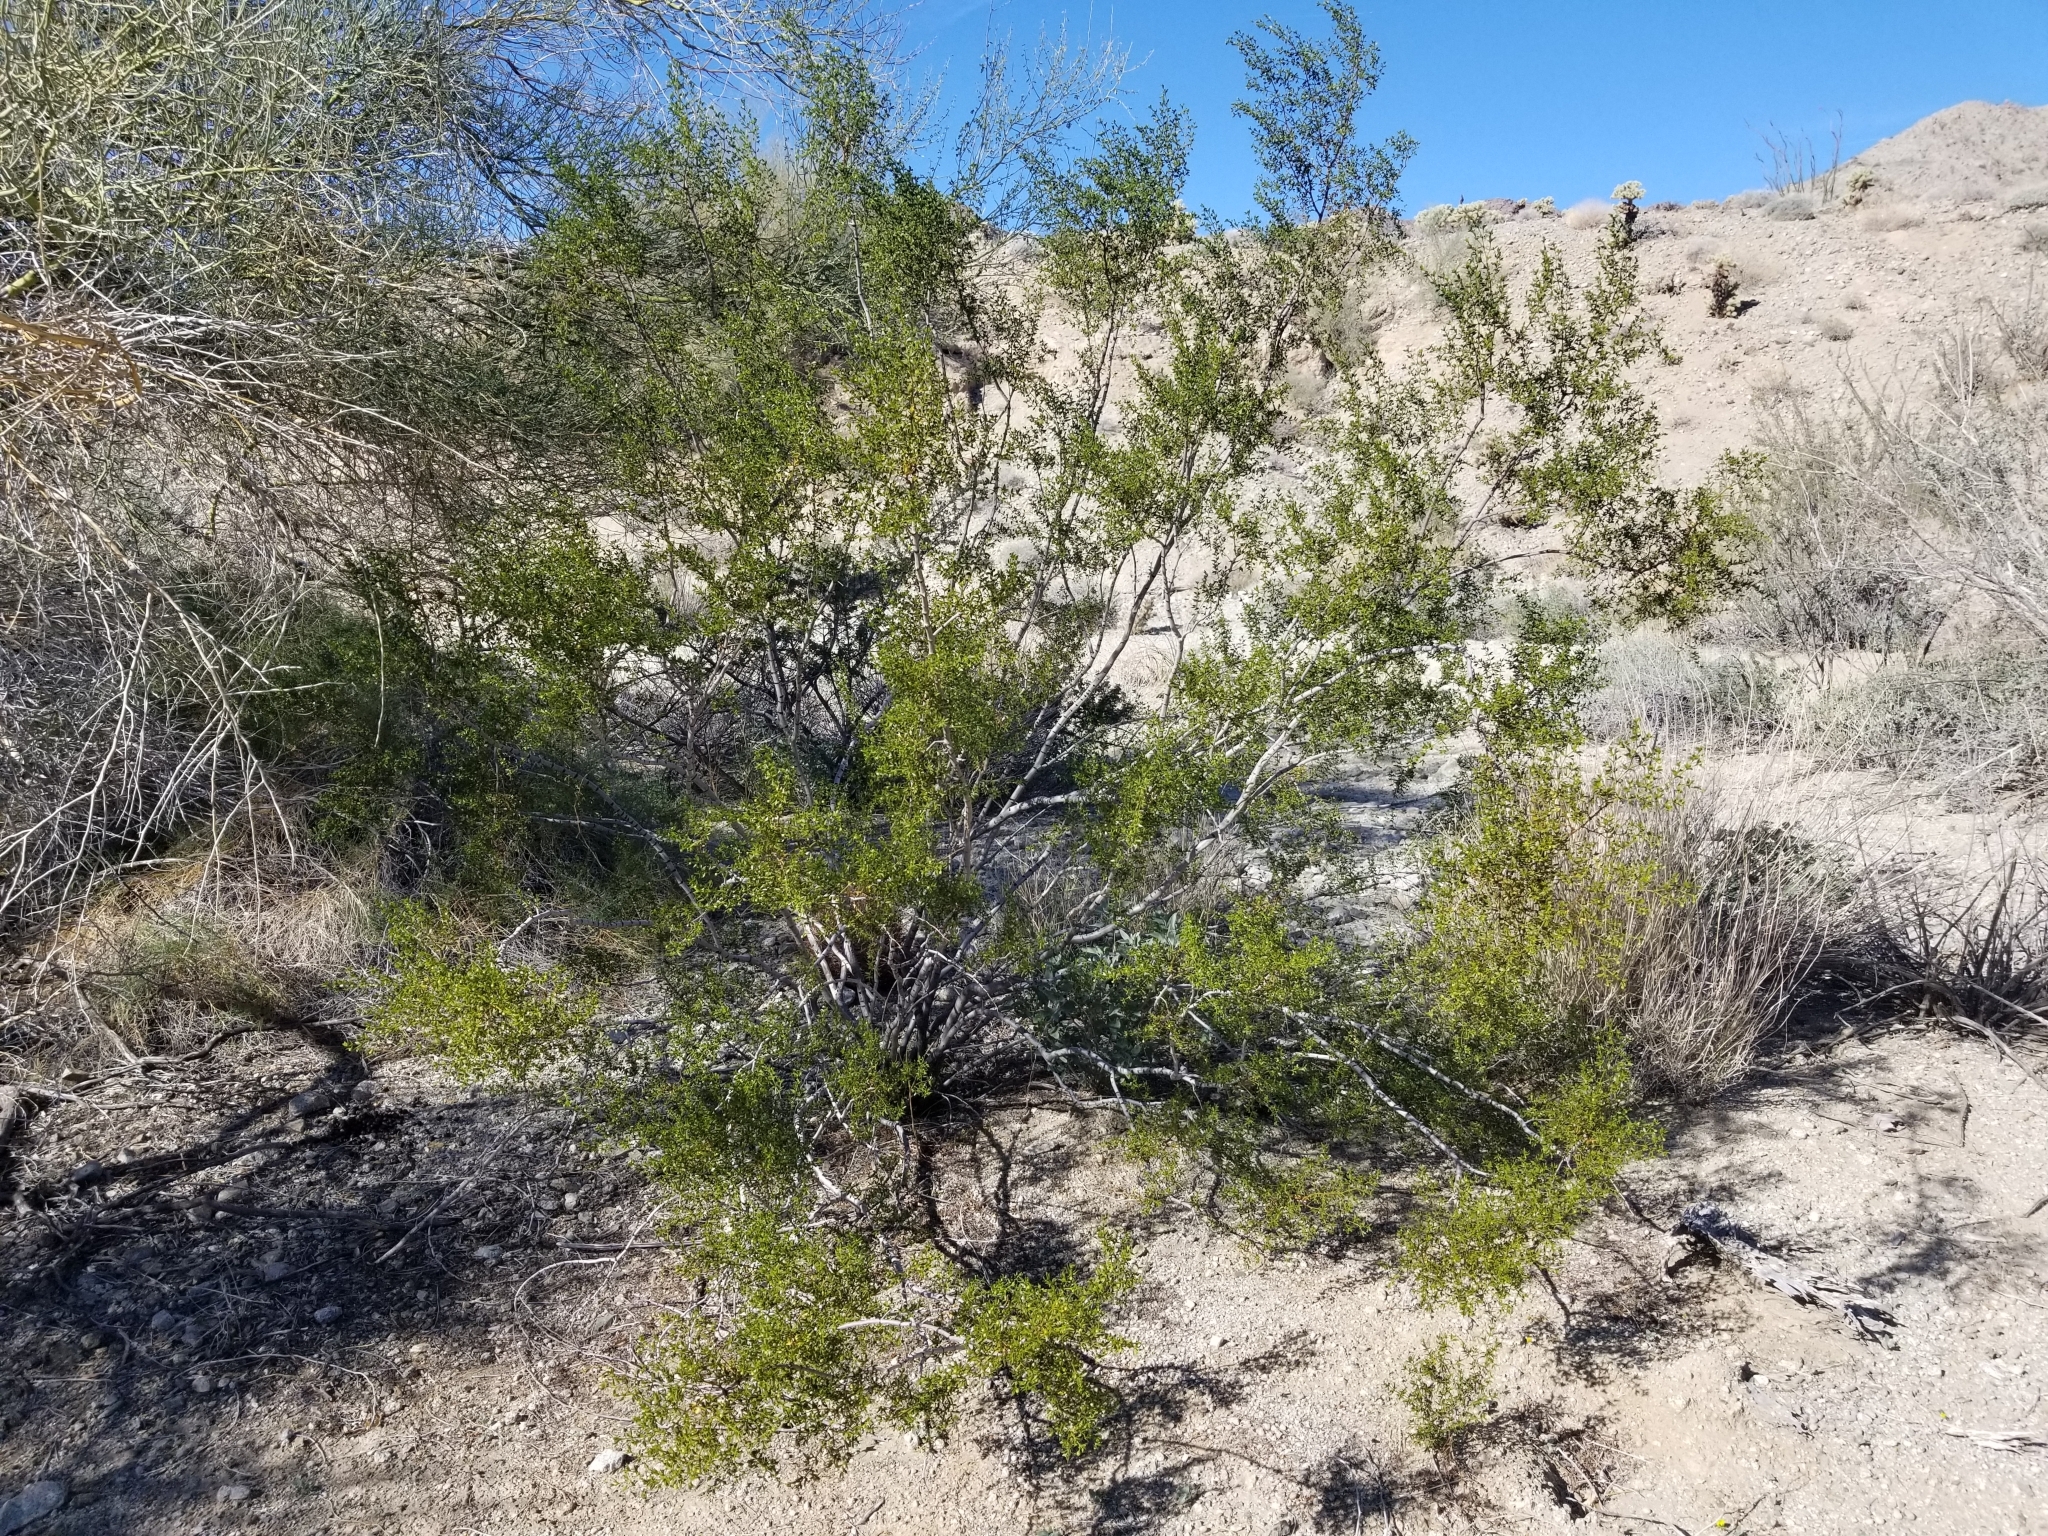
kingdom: Plantae
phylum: Tracheophyta
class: Magnoliopsida
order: Zygophyllales
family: Zygophyllaceae
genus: Larrea
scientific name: Larrea tridentata
